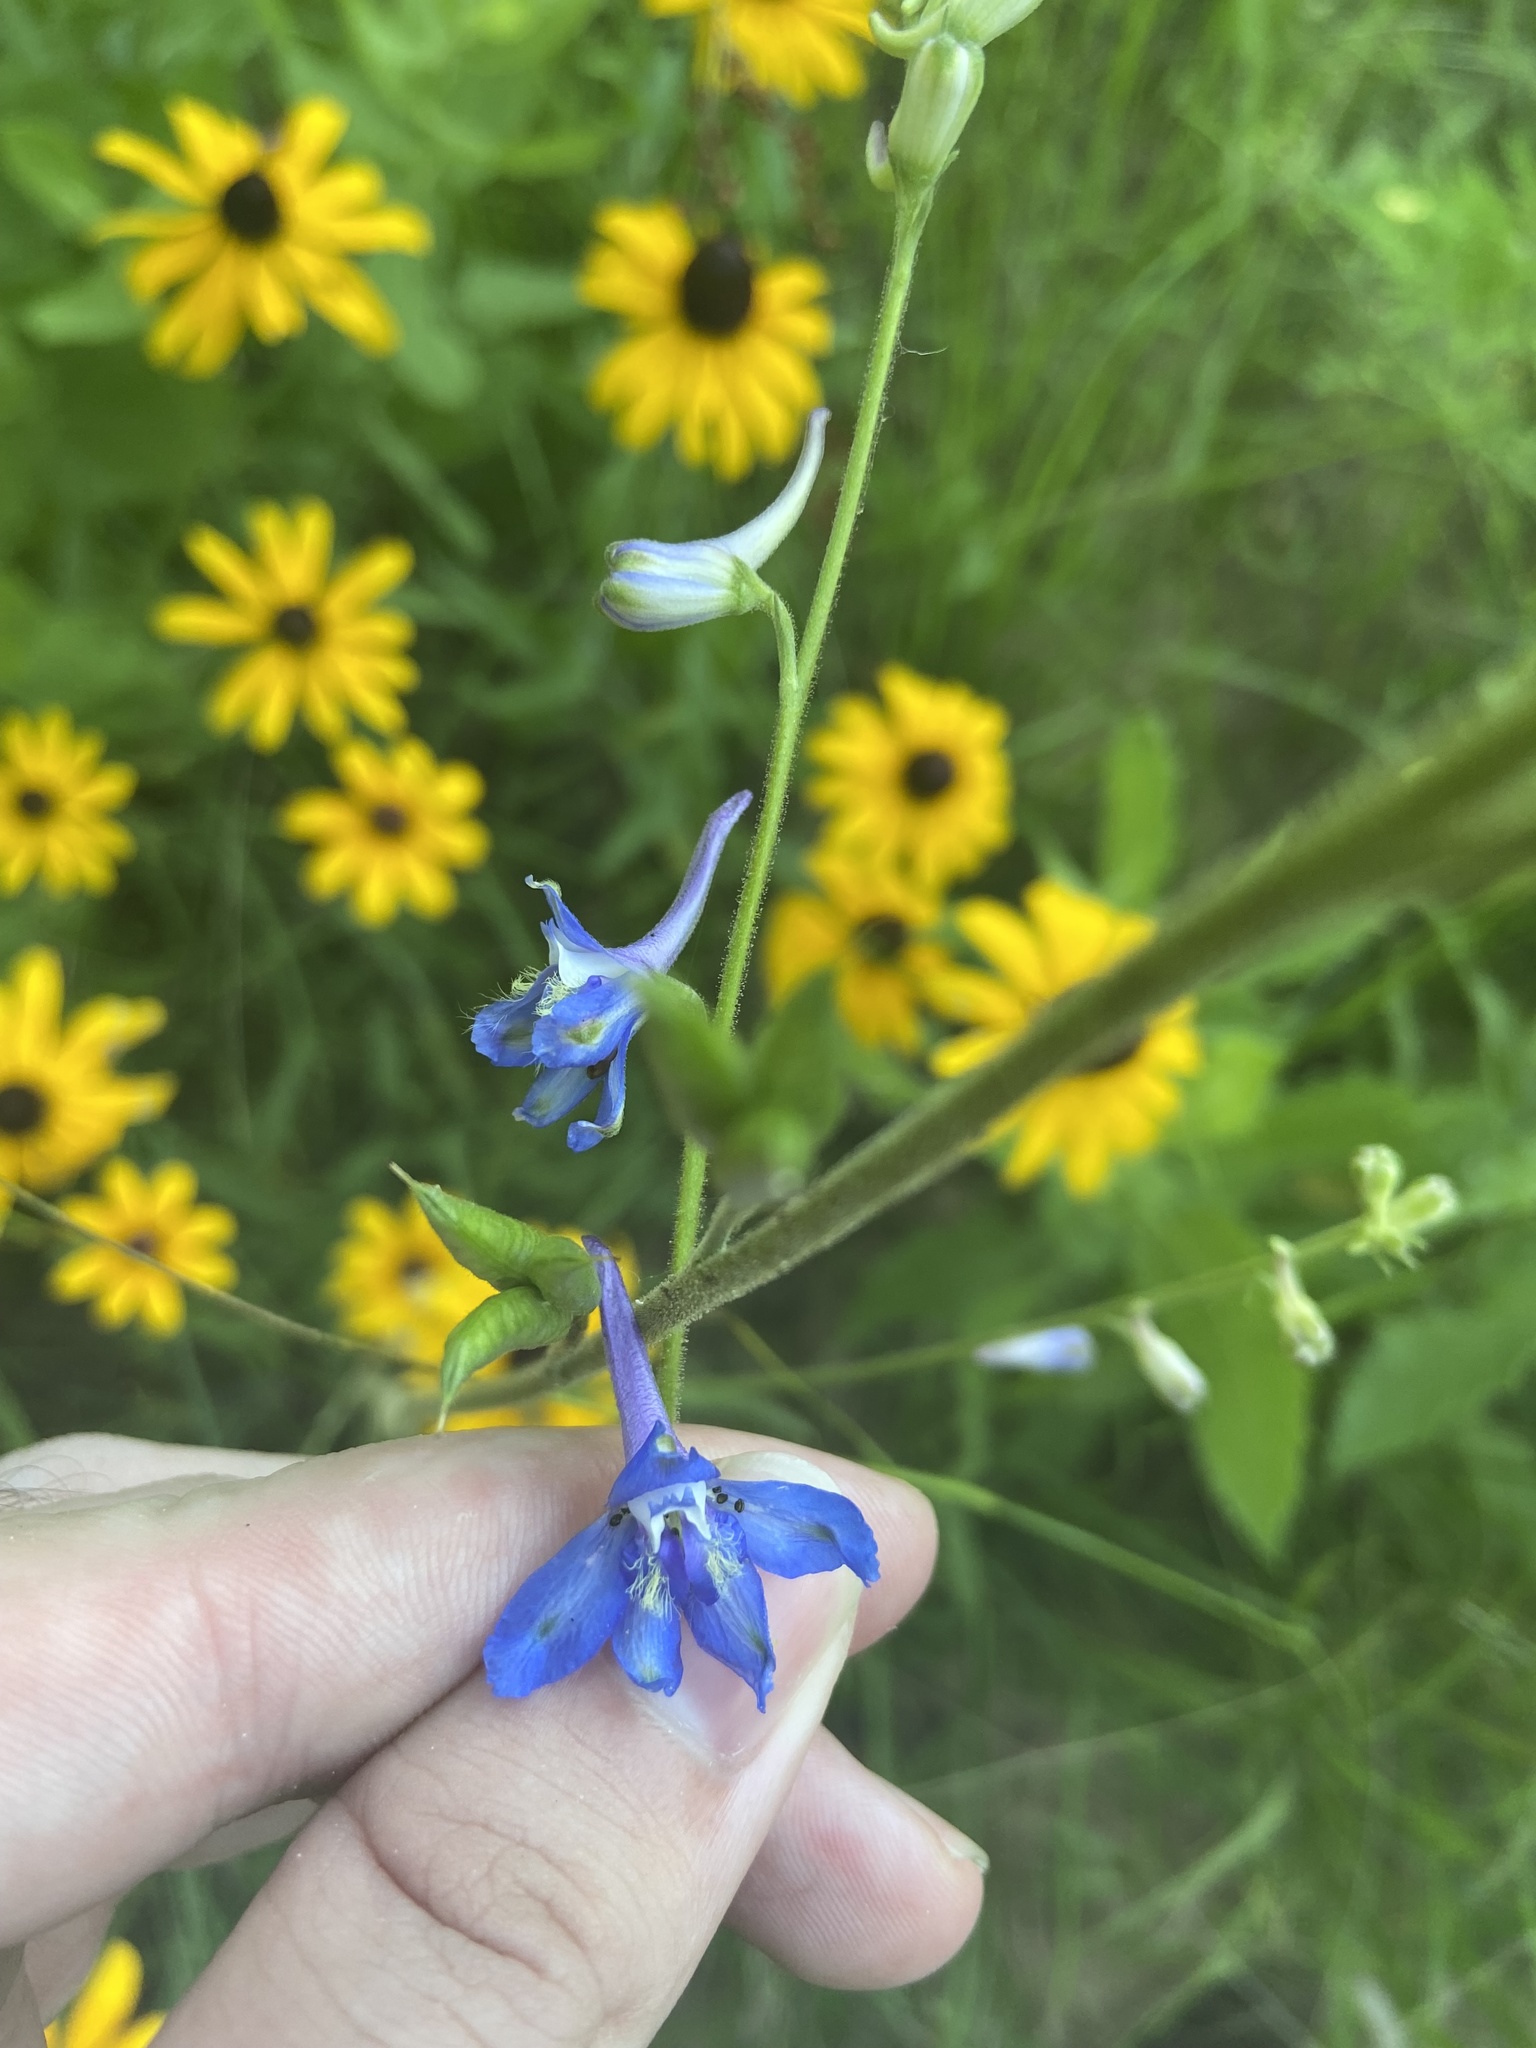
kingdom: Plantae
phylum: Tracheophyta
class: Magnoliopsida
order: Ranunculales
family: Ranunculaceae
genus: Delphinium
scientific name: Delphinium carolinianum
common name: Carolina larkspur
